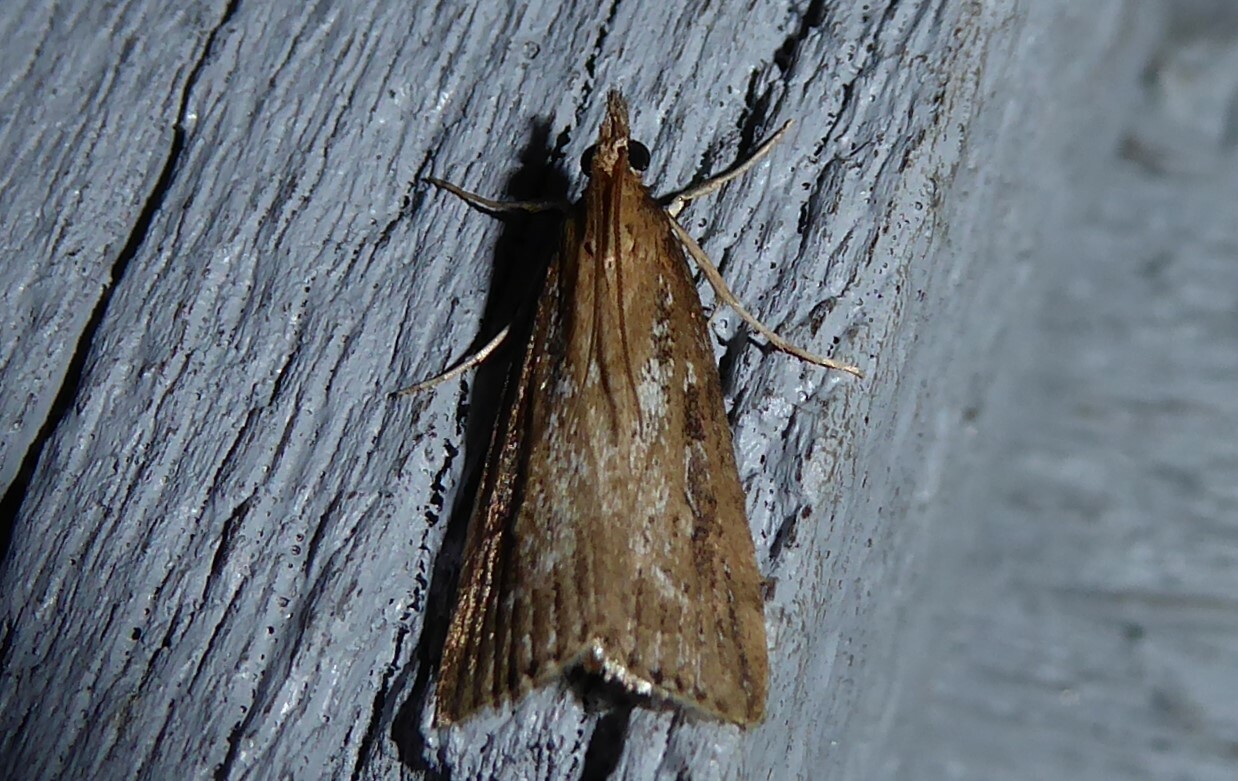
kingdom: Animalia
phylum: Arthropoda
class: Insecta
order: Lepidoptera
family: Crambidae
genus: Eudonia
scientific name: Eudonia octophora
